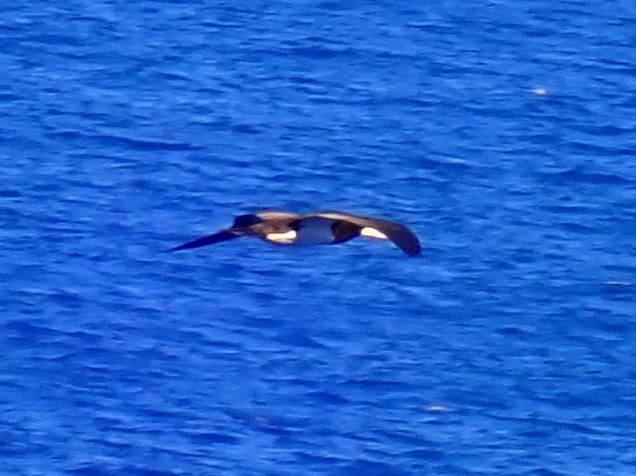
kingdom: Animalia
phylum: Chordata
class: Aves
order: Suliformes
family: Sulidae
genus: Sula
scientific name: Sula leucogaster
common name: Brown booby
